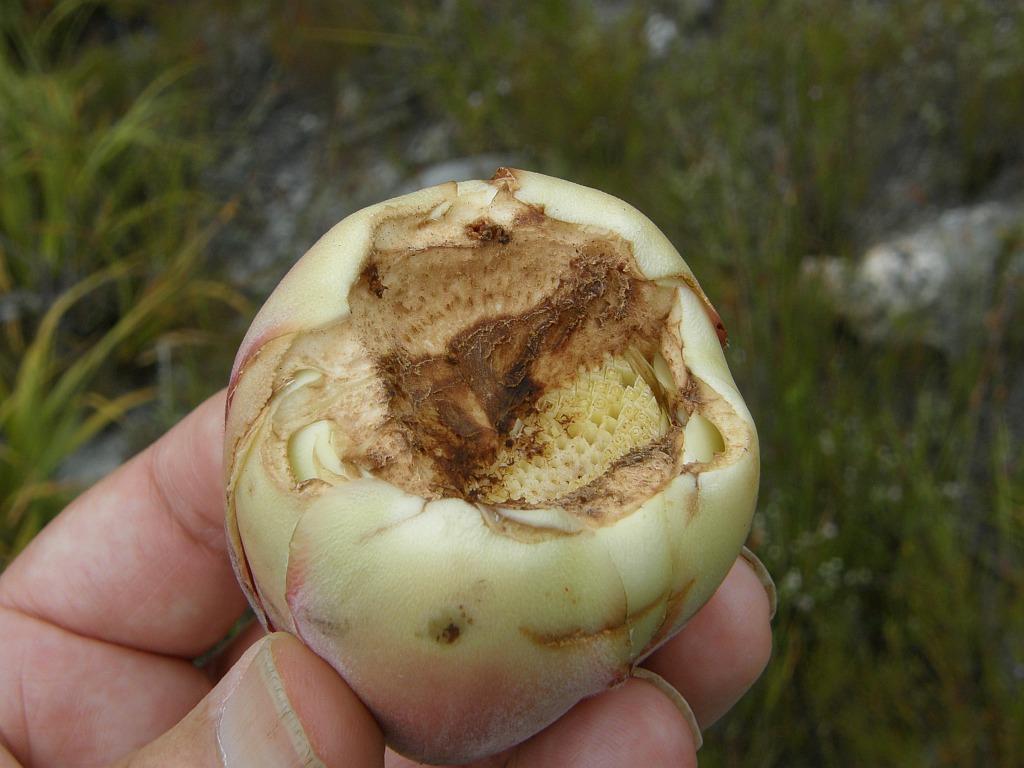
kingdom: Animalia
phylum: Chordata
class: Mammalia
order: Primates
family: Cercopithecidae
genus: Papio
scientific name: Papio ursinus
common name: Chacma baboon
